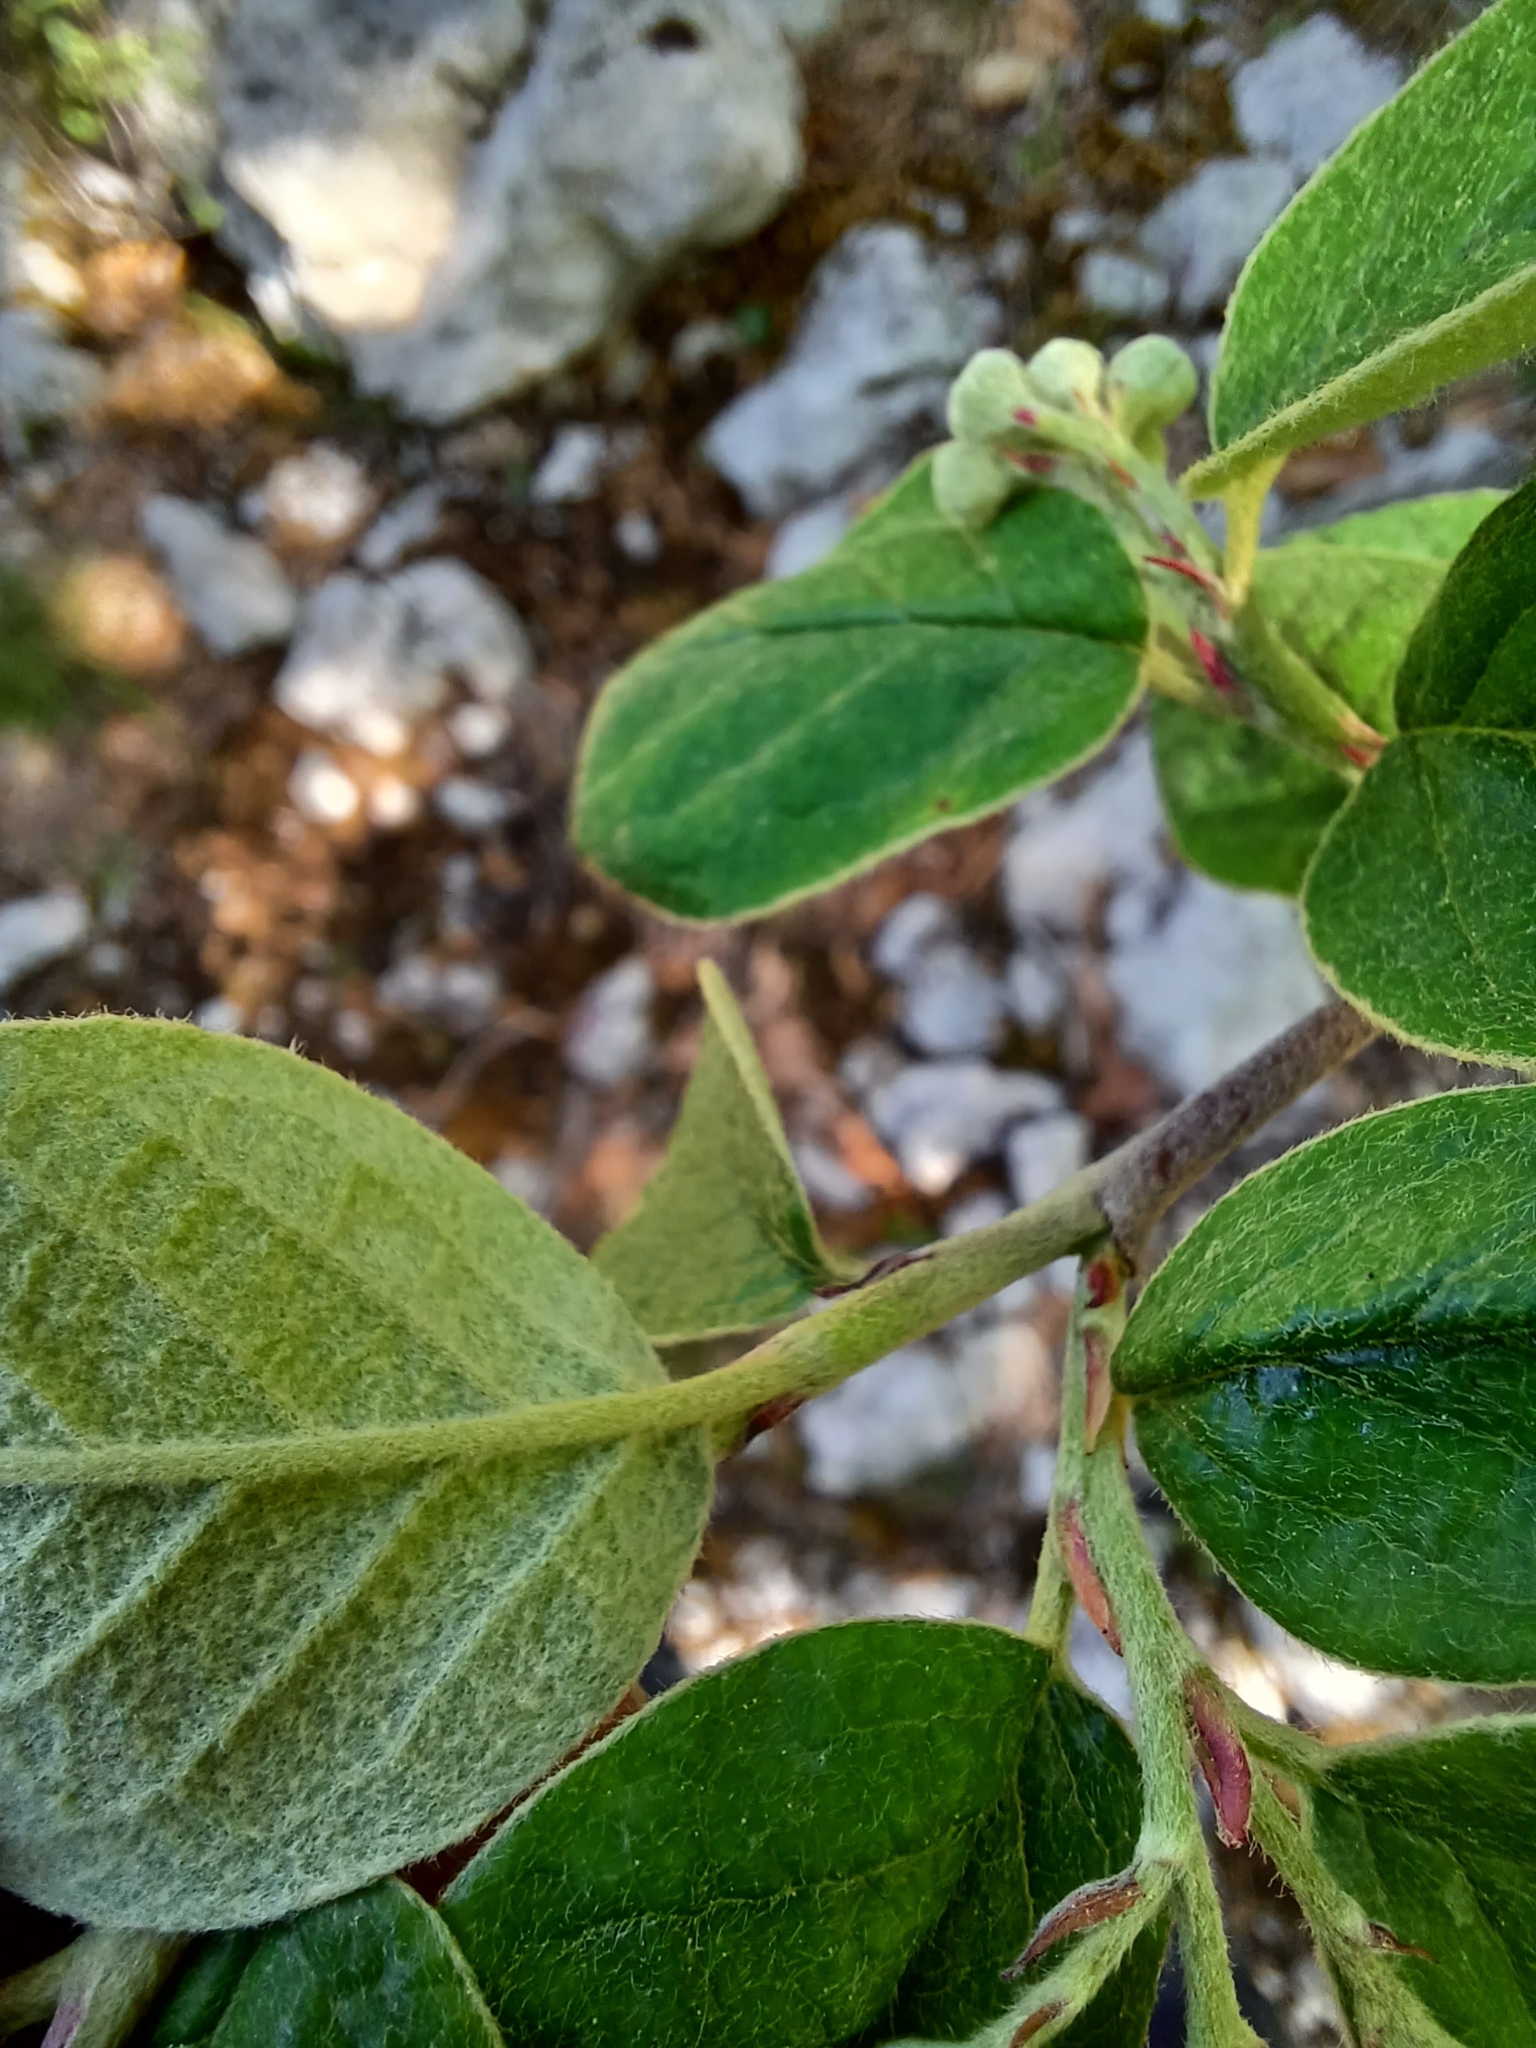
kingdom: Plantae
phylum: Tracheophyta
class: Magnoliopsida
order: Rosales
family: Rosaceae
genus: Cotoneaster
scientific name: Cotoneaster integerrimus
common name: Wild cotoneaster
